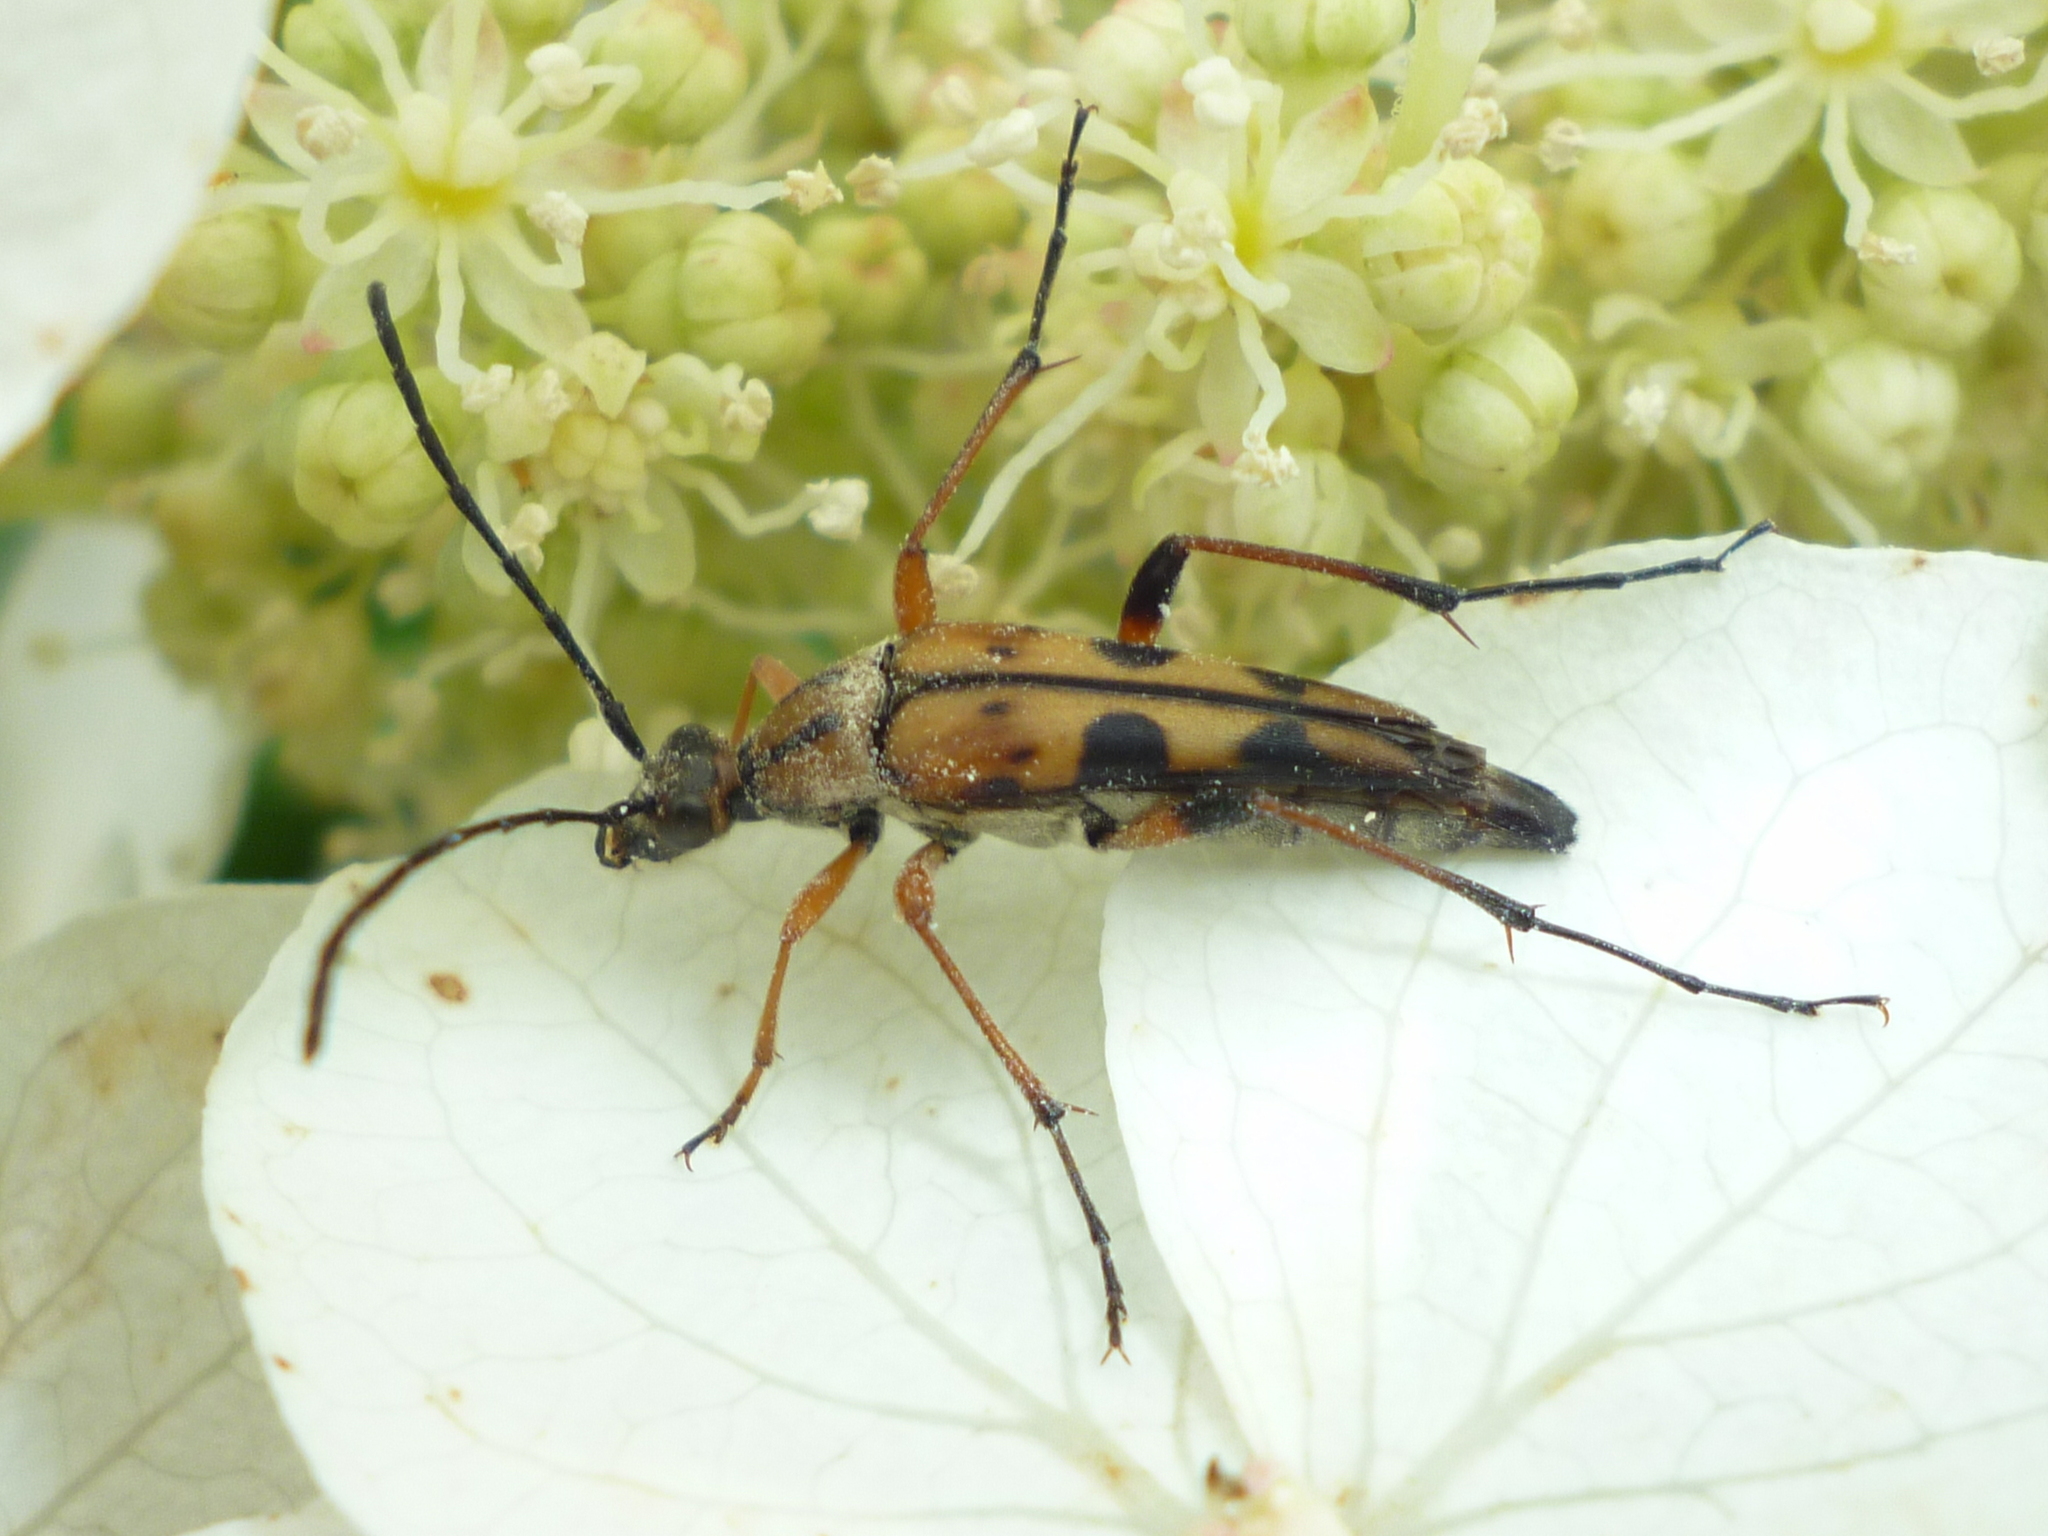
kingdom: Animalia
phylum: Arthropoda
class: Insecta
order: Coleoptera
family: Cerambycidae
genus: Strangalia
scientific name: Strangalia famelica
